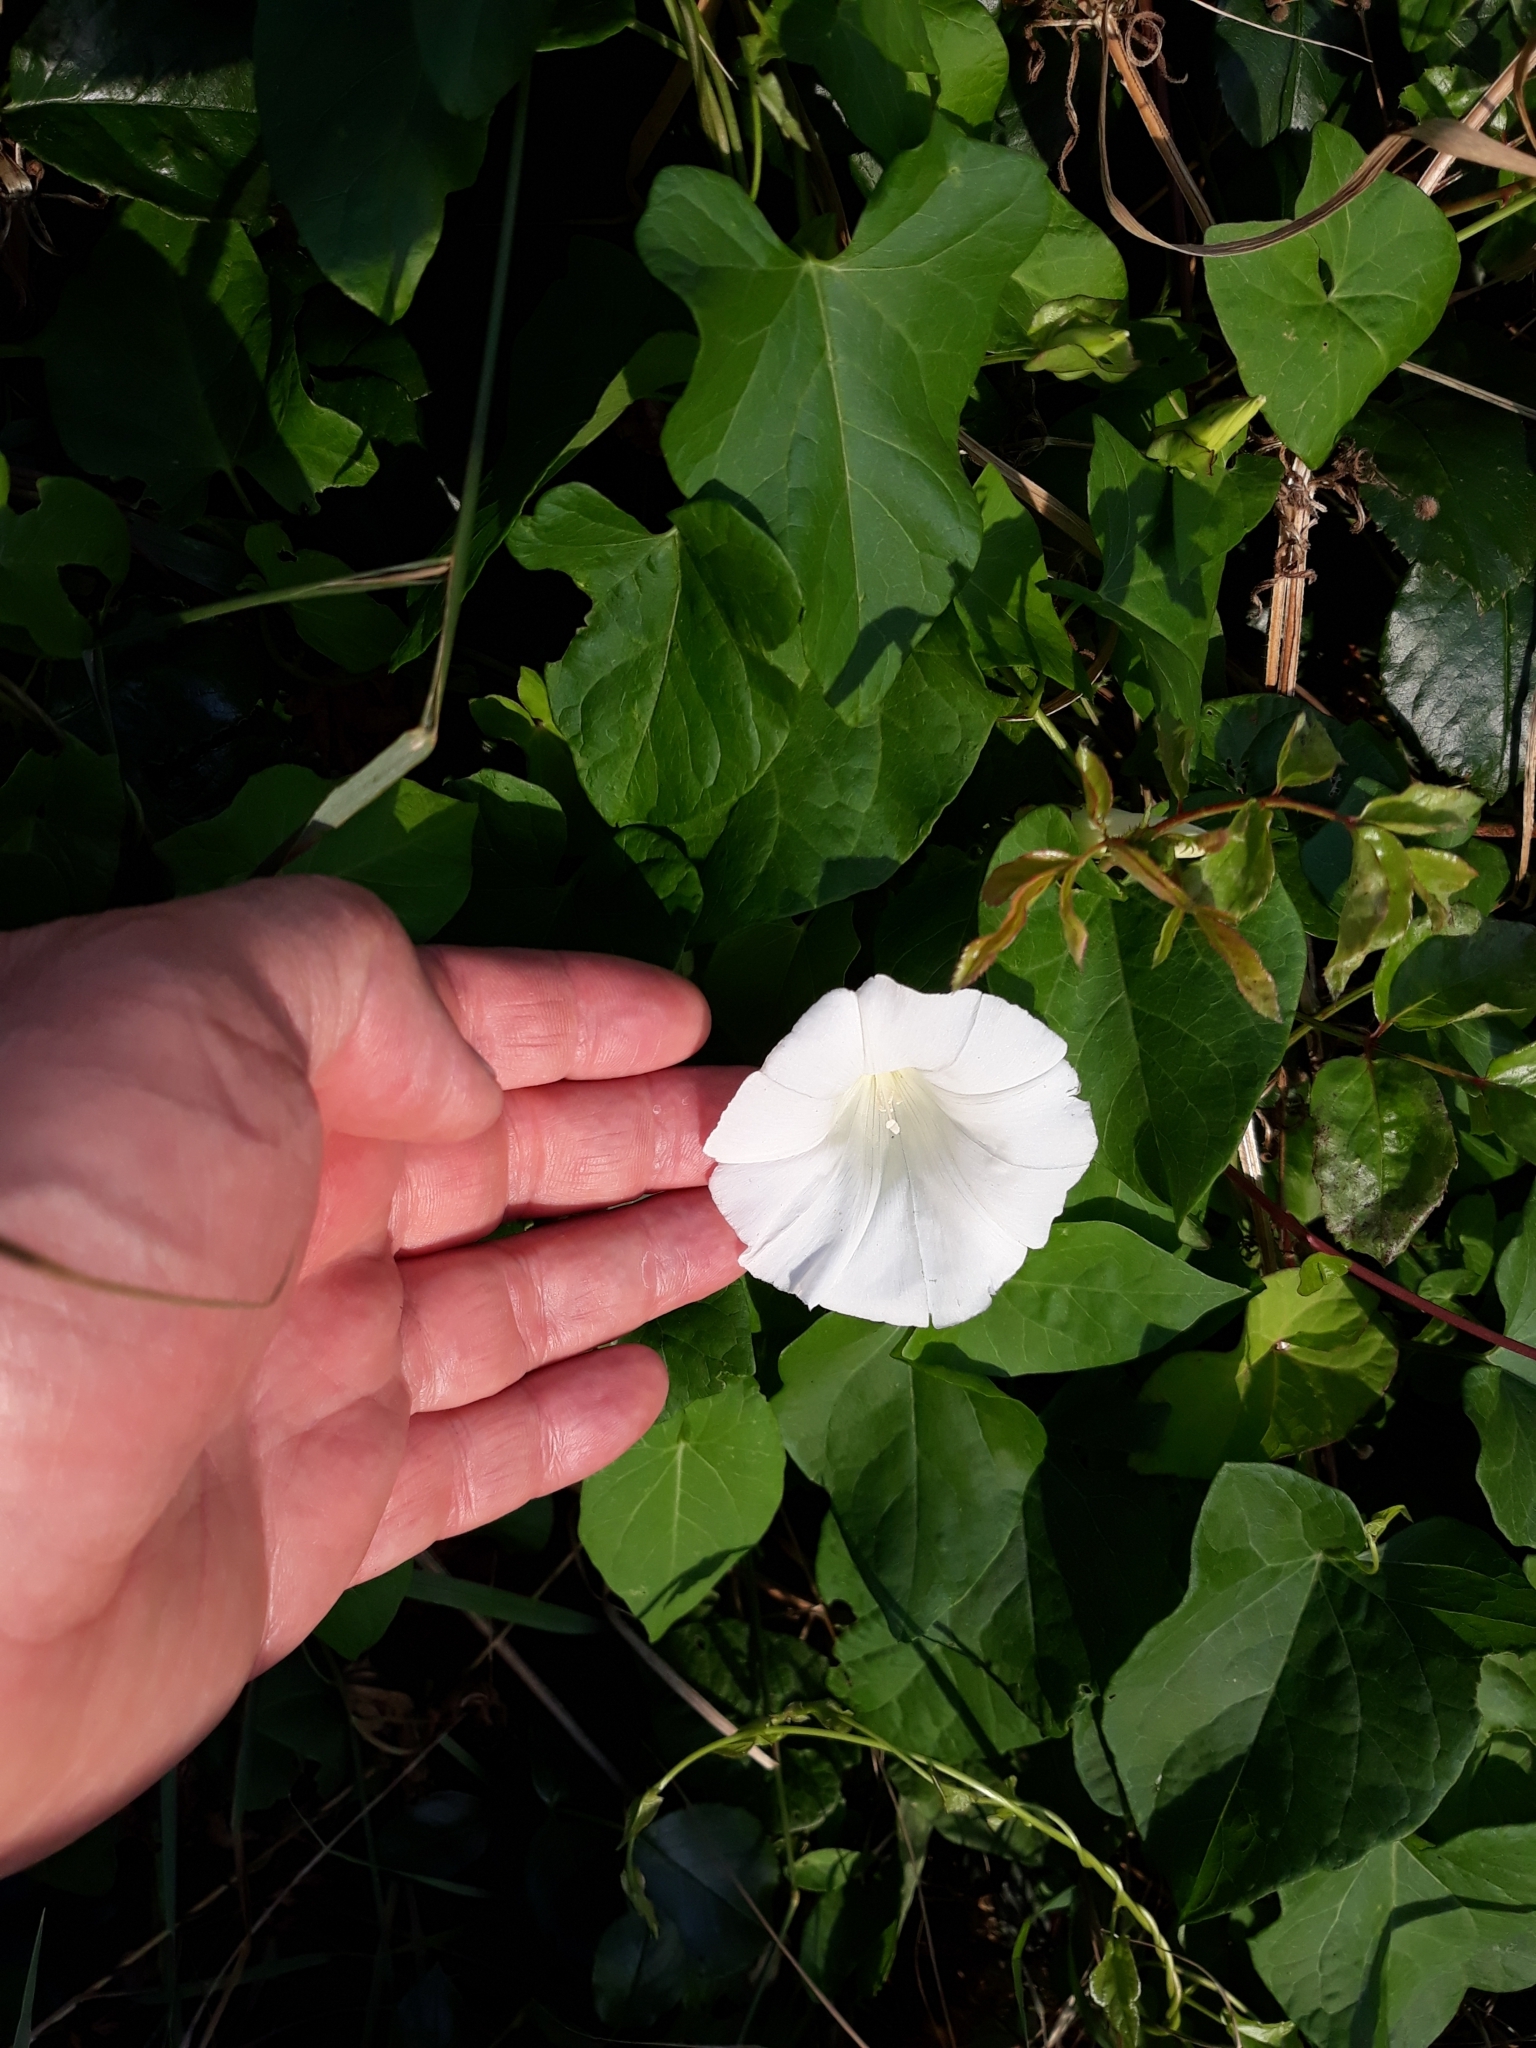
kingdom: Plantae
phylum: Tracheophyta
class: Magnoliopsida
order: Solanales
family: Convolvulaceae
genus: Calystegia
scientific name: Calystegia sepium
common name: Hedge bindweed
